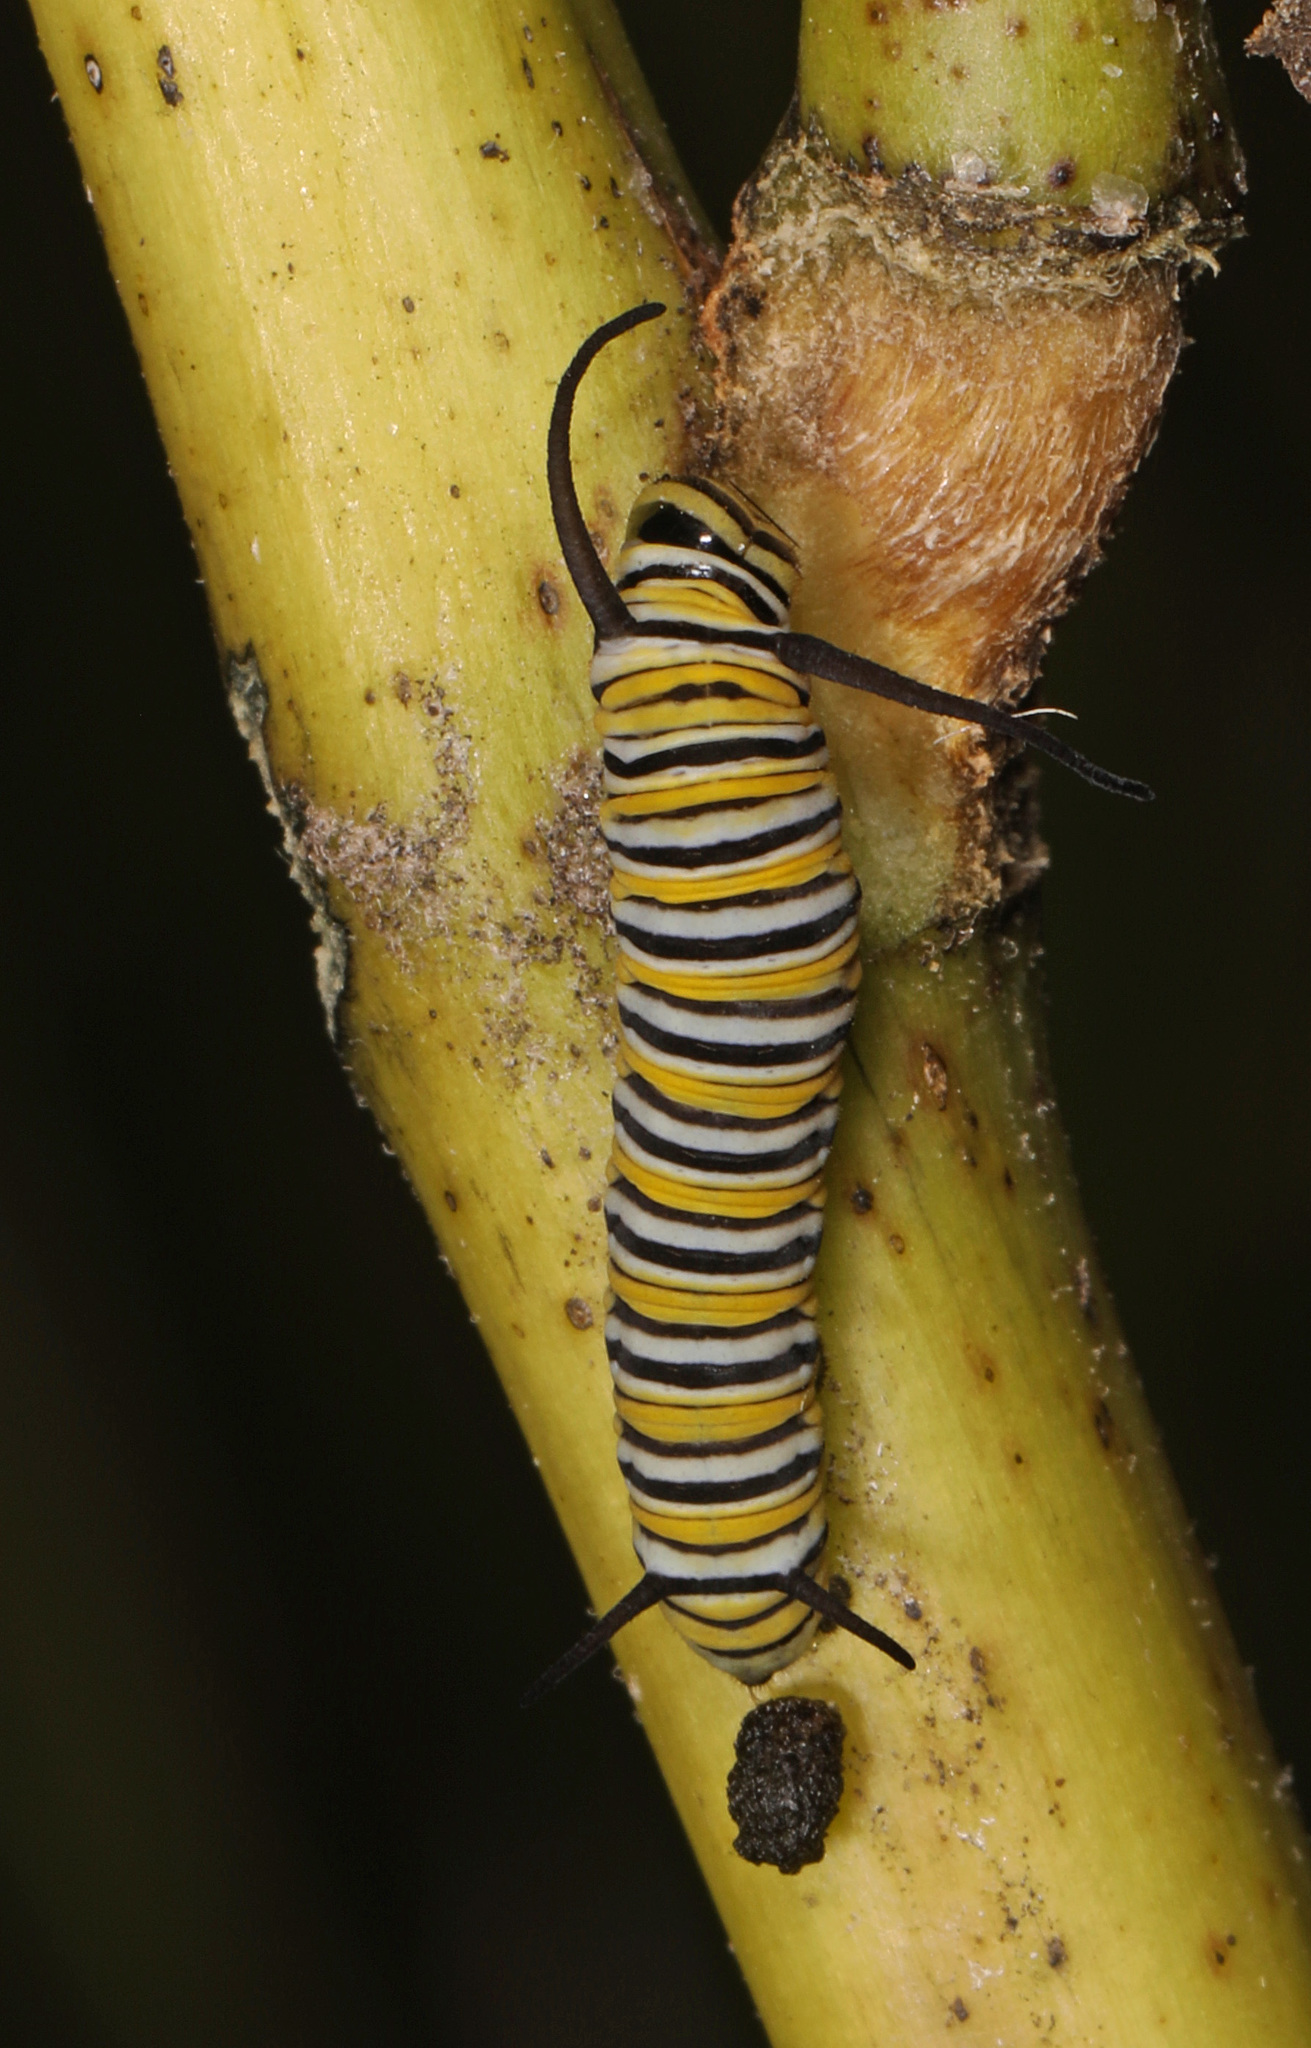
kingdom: Animalia
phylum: Arthropoda
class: Insecta
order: Lepidoptera
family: Nymphalidae
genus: Danaus
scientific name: Danaus plexippus
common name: Monarch
